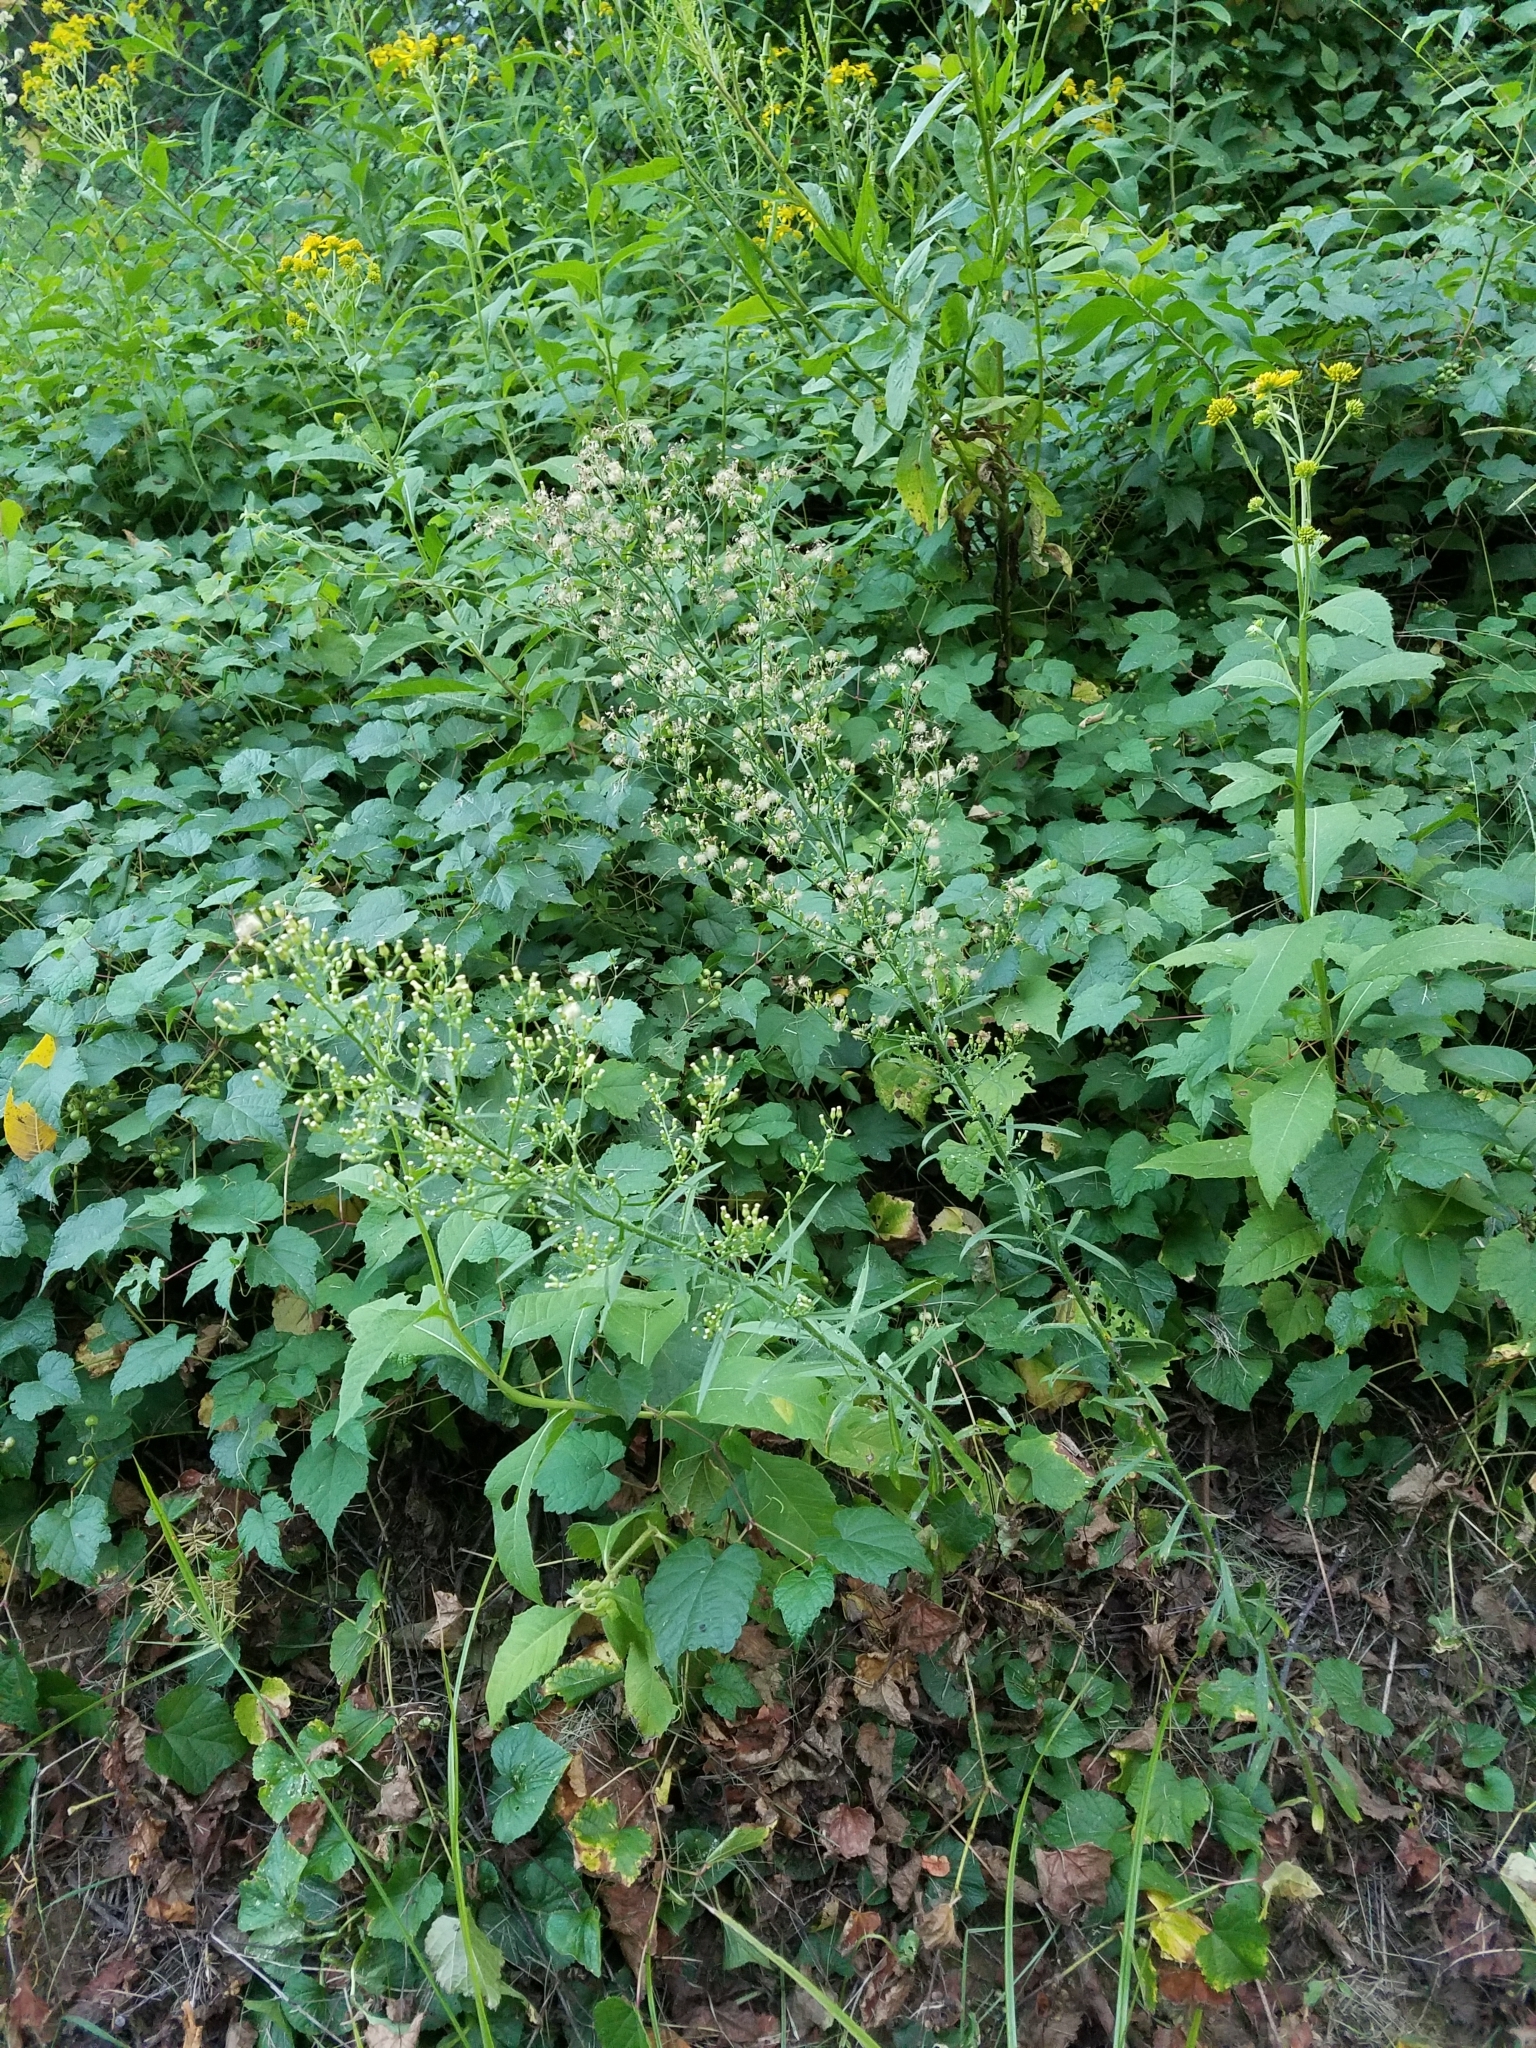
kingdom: Plantae
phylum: Tracheophyta
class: Magnoliopsida
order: Asterales
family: Asteraceae
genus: Erigeron
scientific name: Erigeron canadensis
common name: Canadian fleabane
